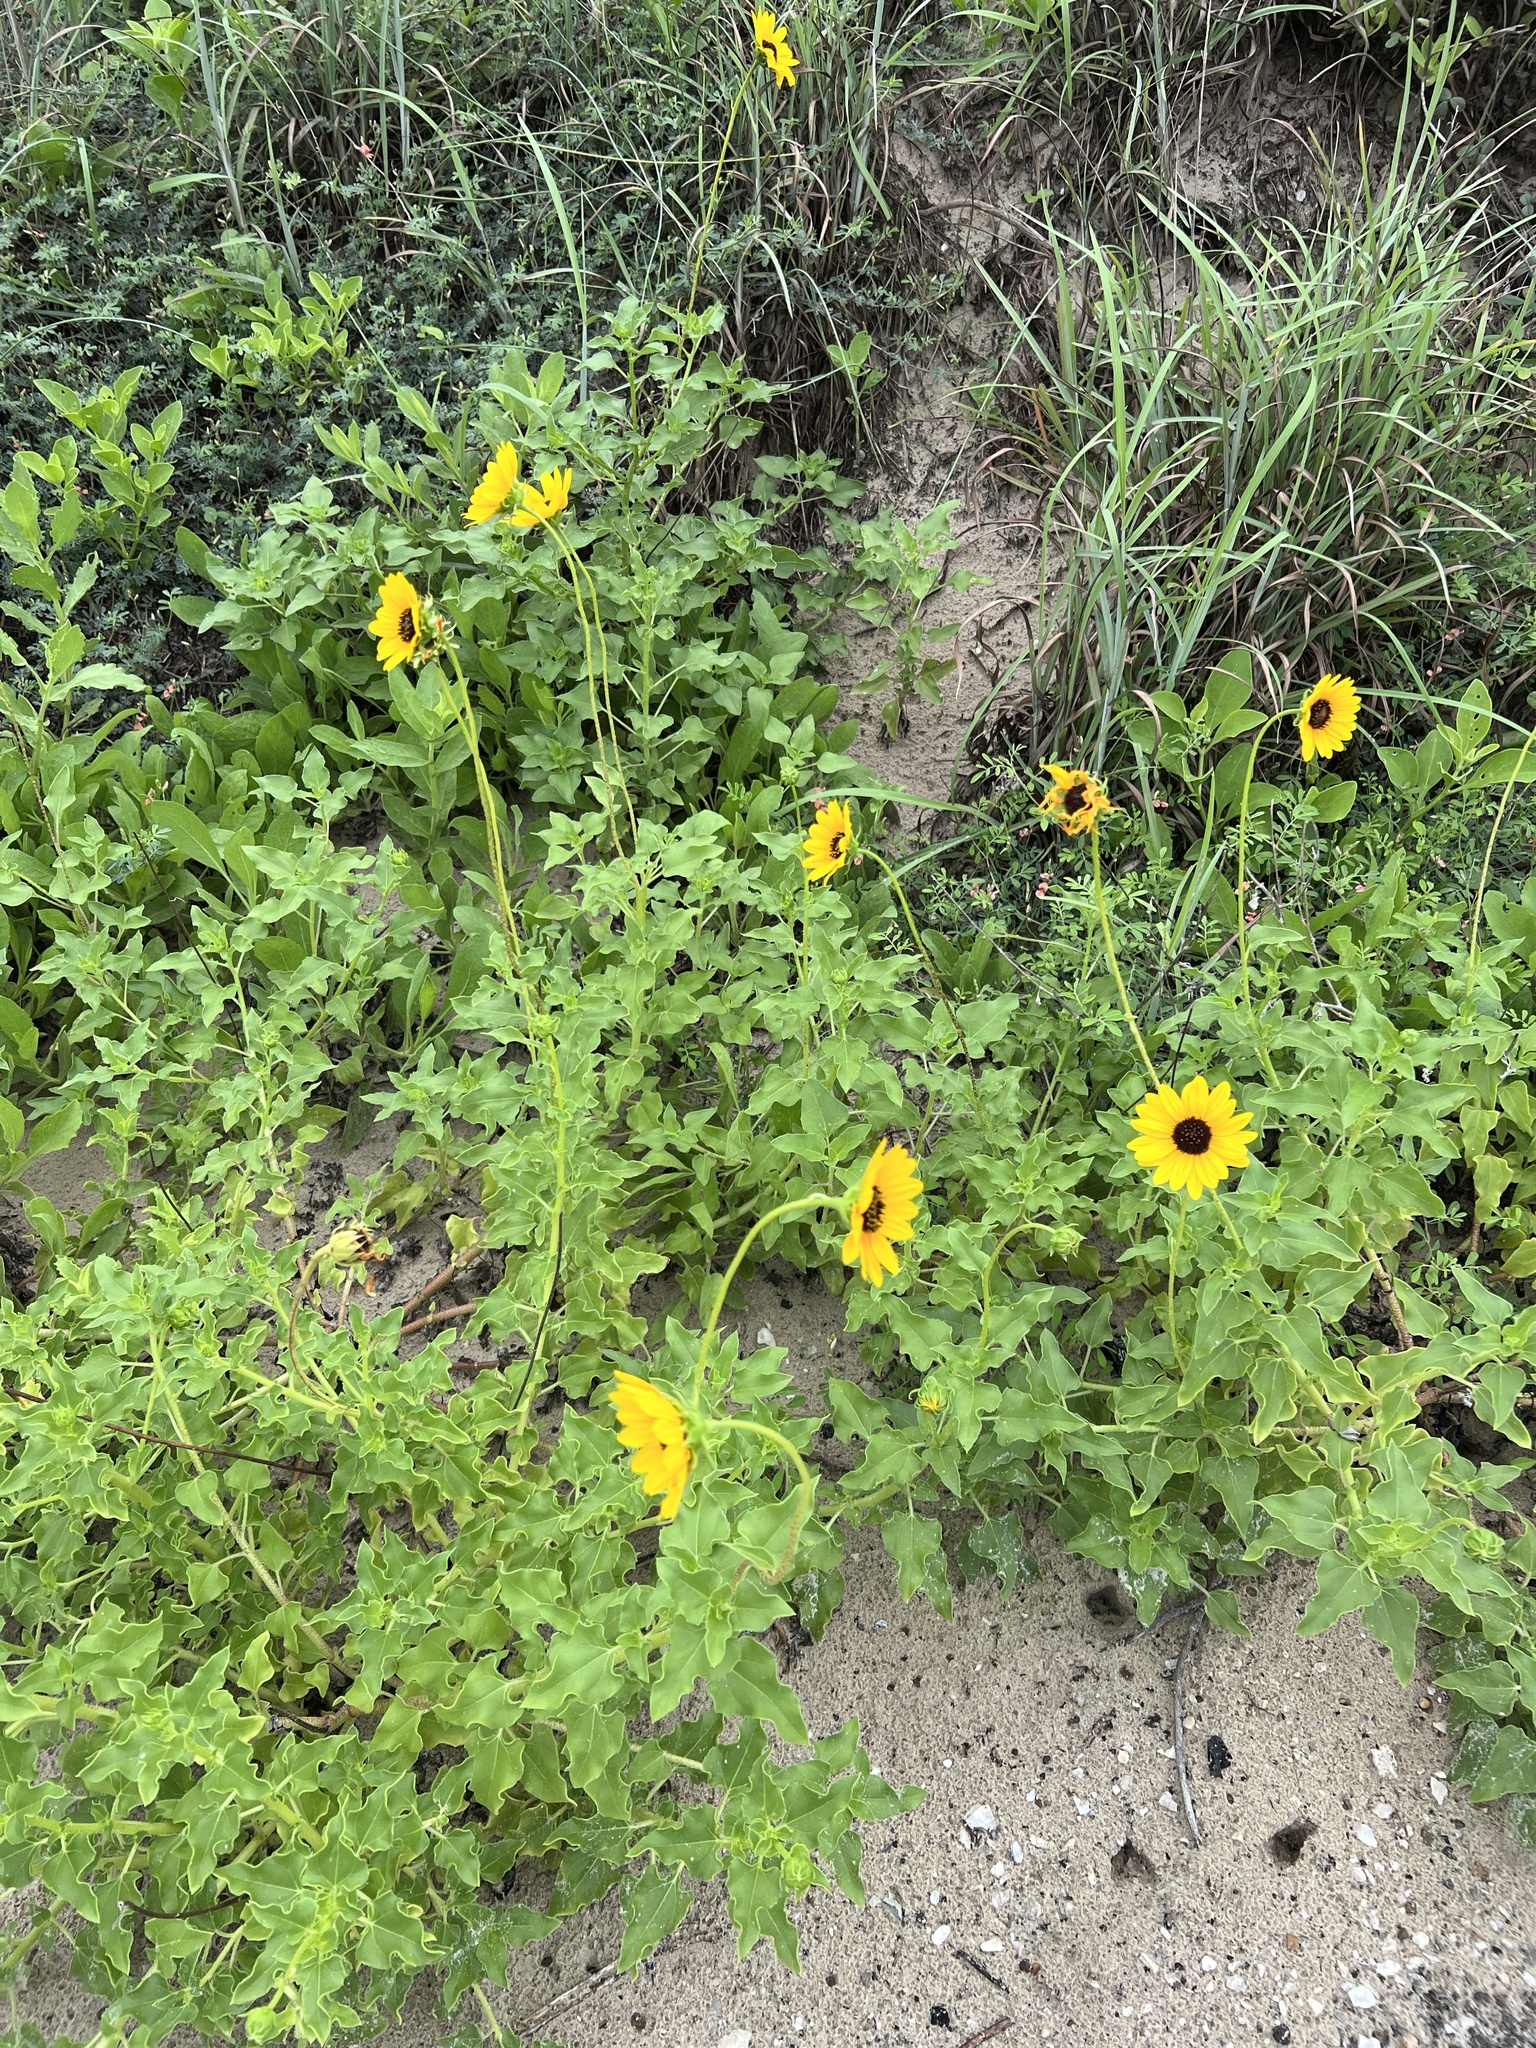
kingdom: Plantae
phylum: Tracheophyta
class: Magnoliopsida
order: Asterales
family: Asteraceae
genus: Helianthus
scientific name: Helianthus praecox
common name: Texas sunflower
